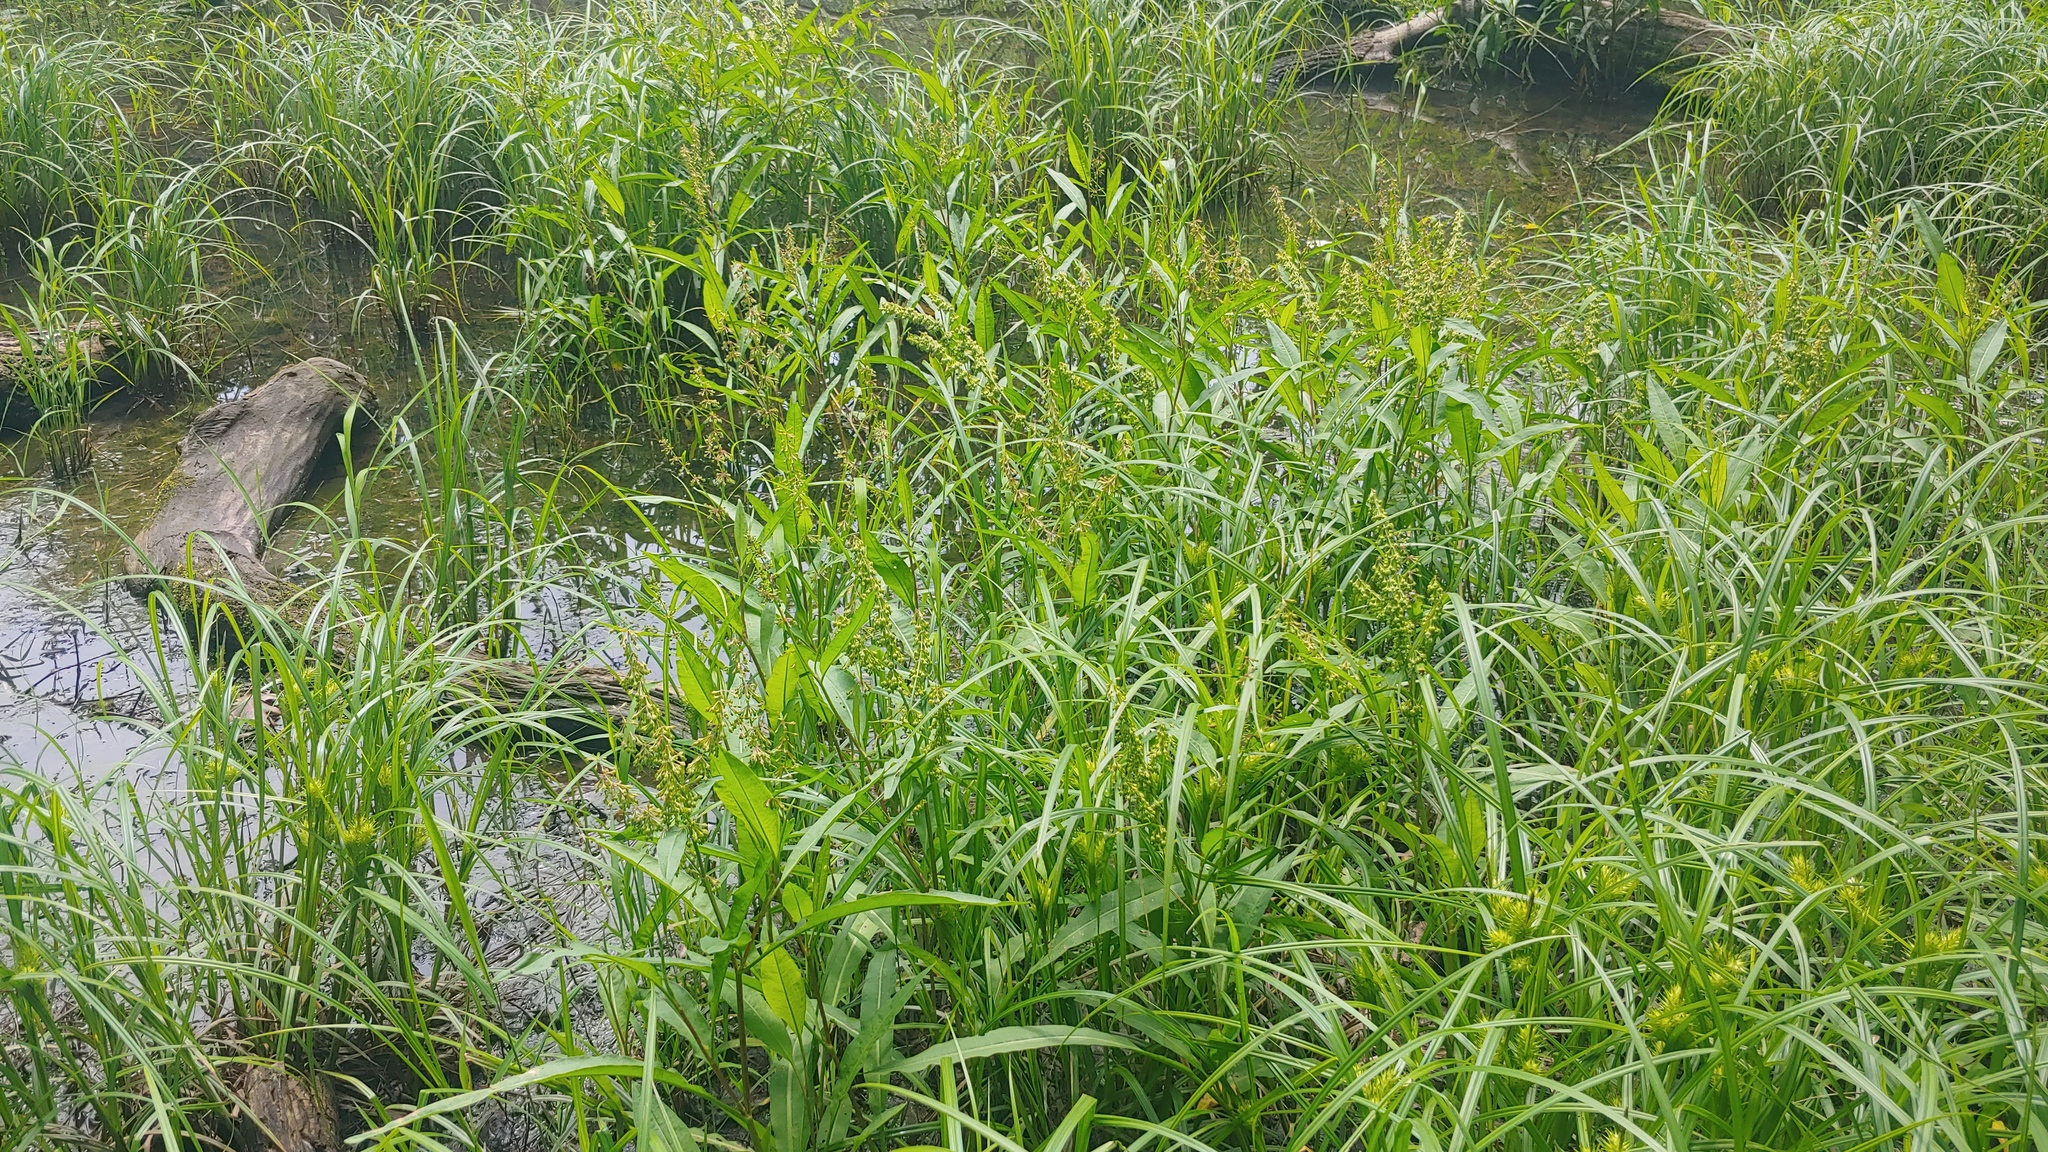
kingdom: Plantae
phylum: Tracheophyta
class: Magnoliopsida
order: Caryophyllales
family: Polygonaceae
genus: Rumex
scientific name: Rumex verticillatus
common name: Swamp dock
